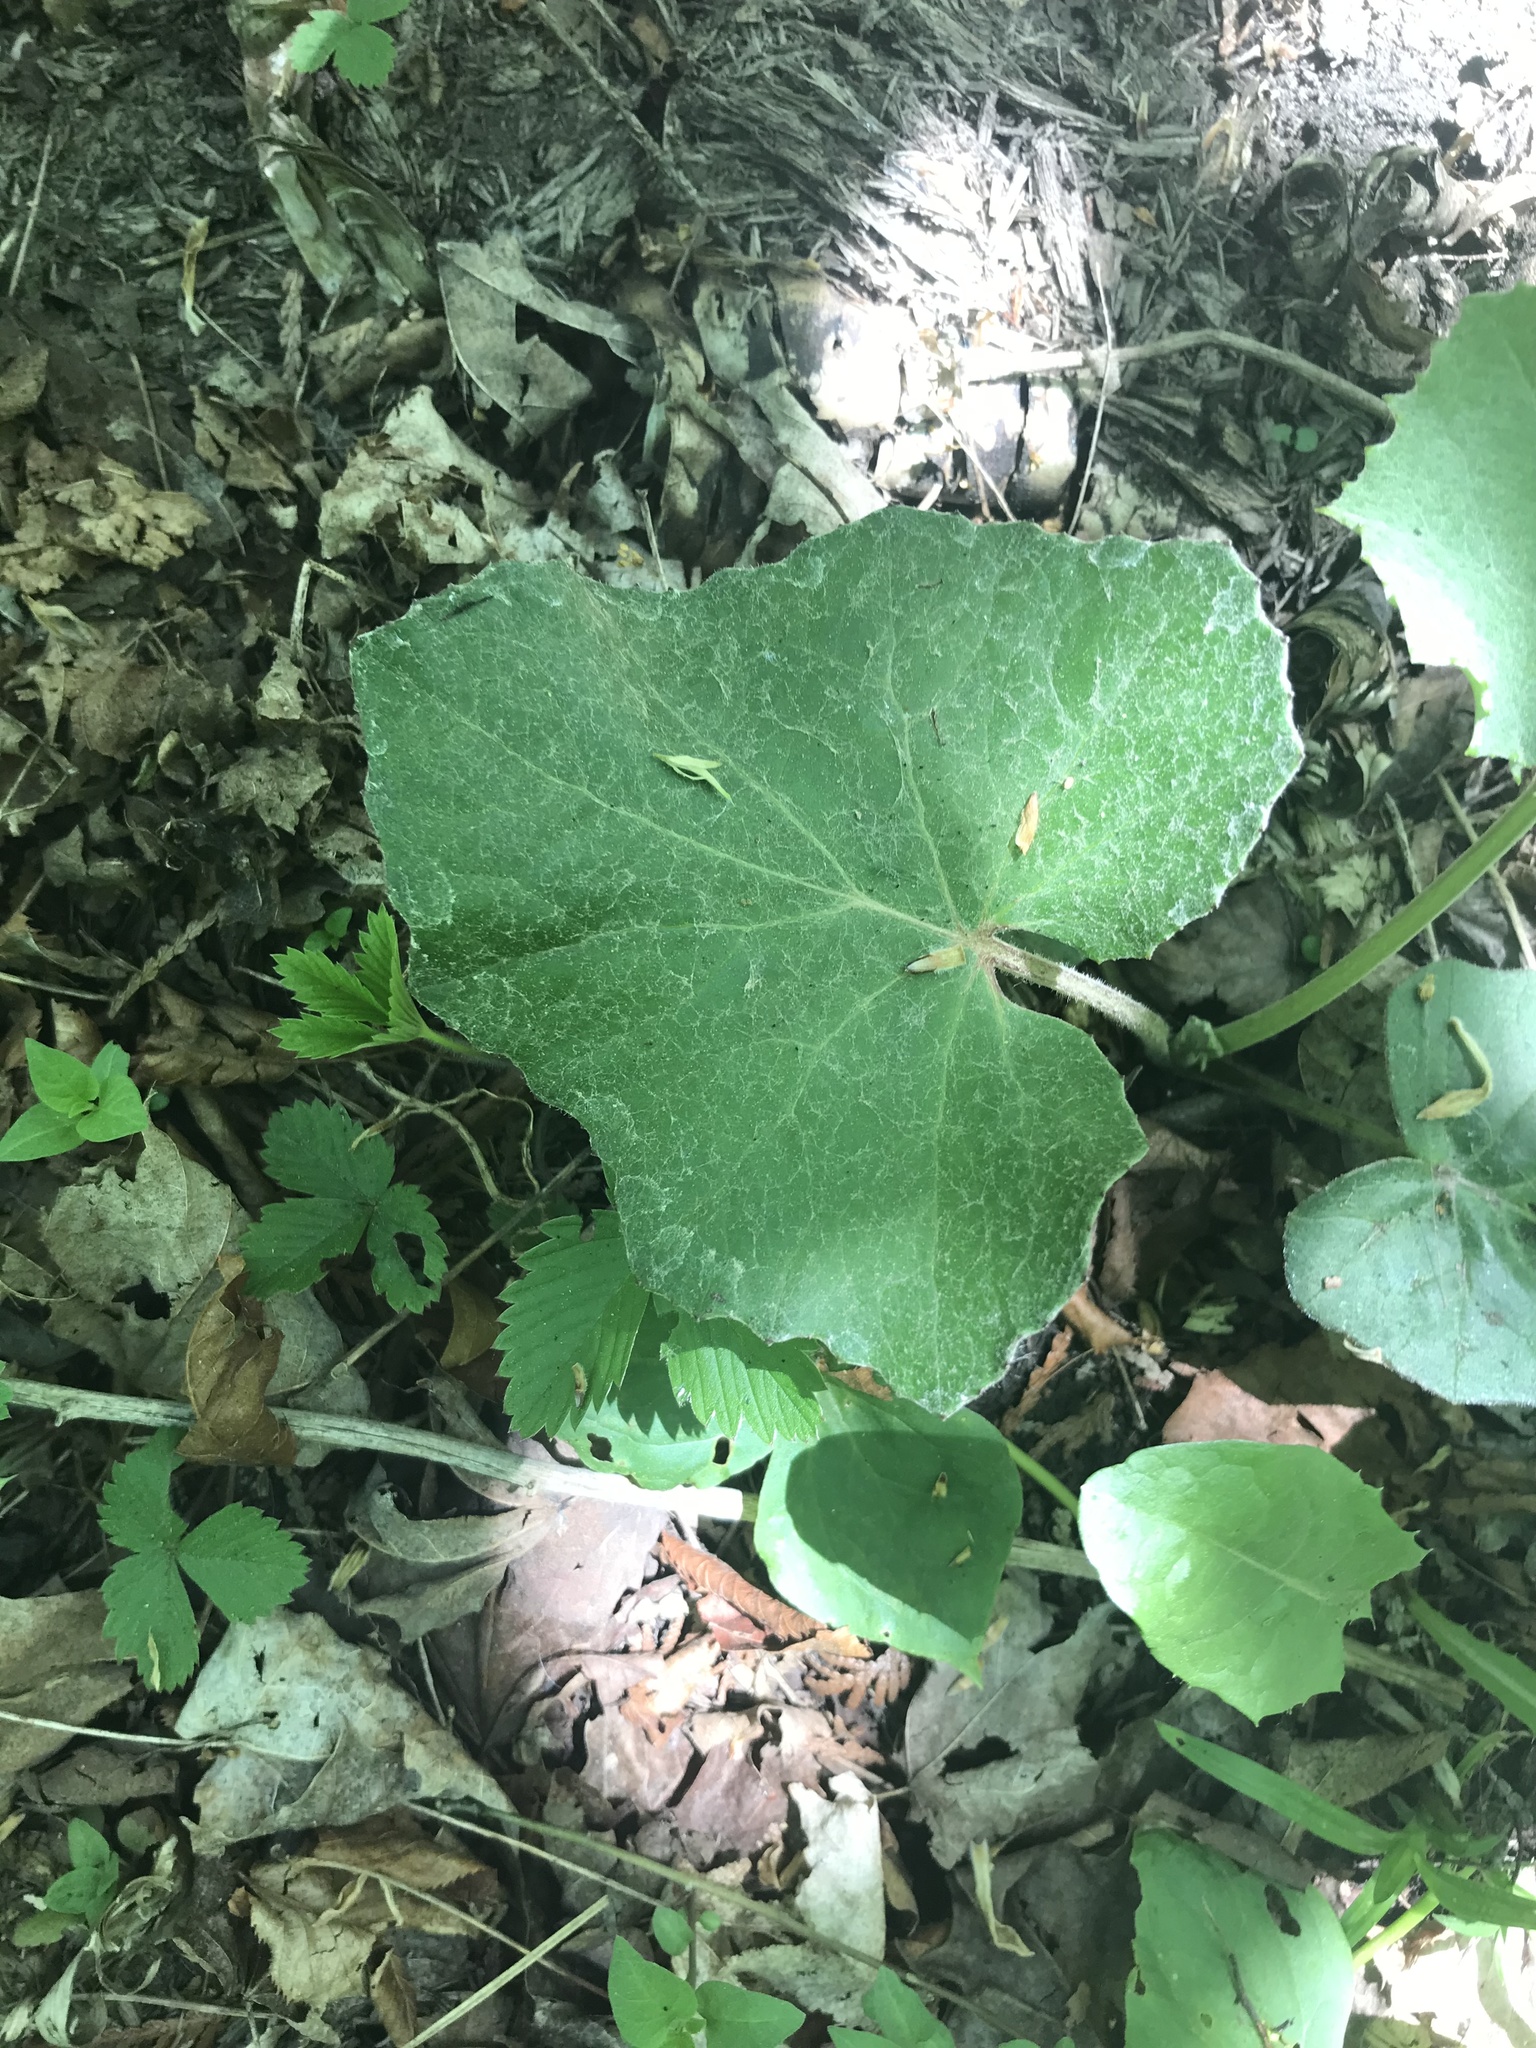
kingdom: Plantae
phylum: Tracheophyta
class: Magnoliopsida
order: Asterales
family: Asteraceae
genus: Tussilago
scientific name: Tussilago farfara
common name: Coltsfoot
